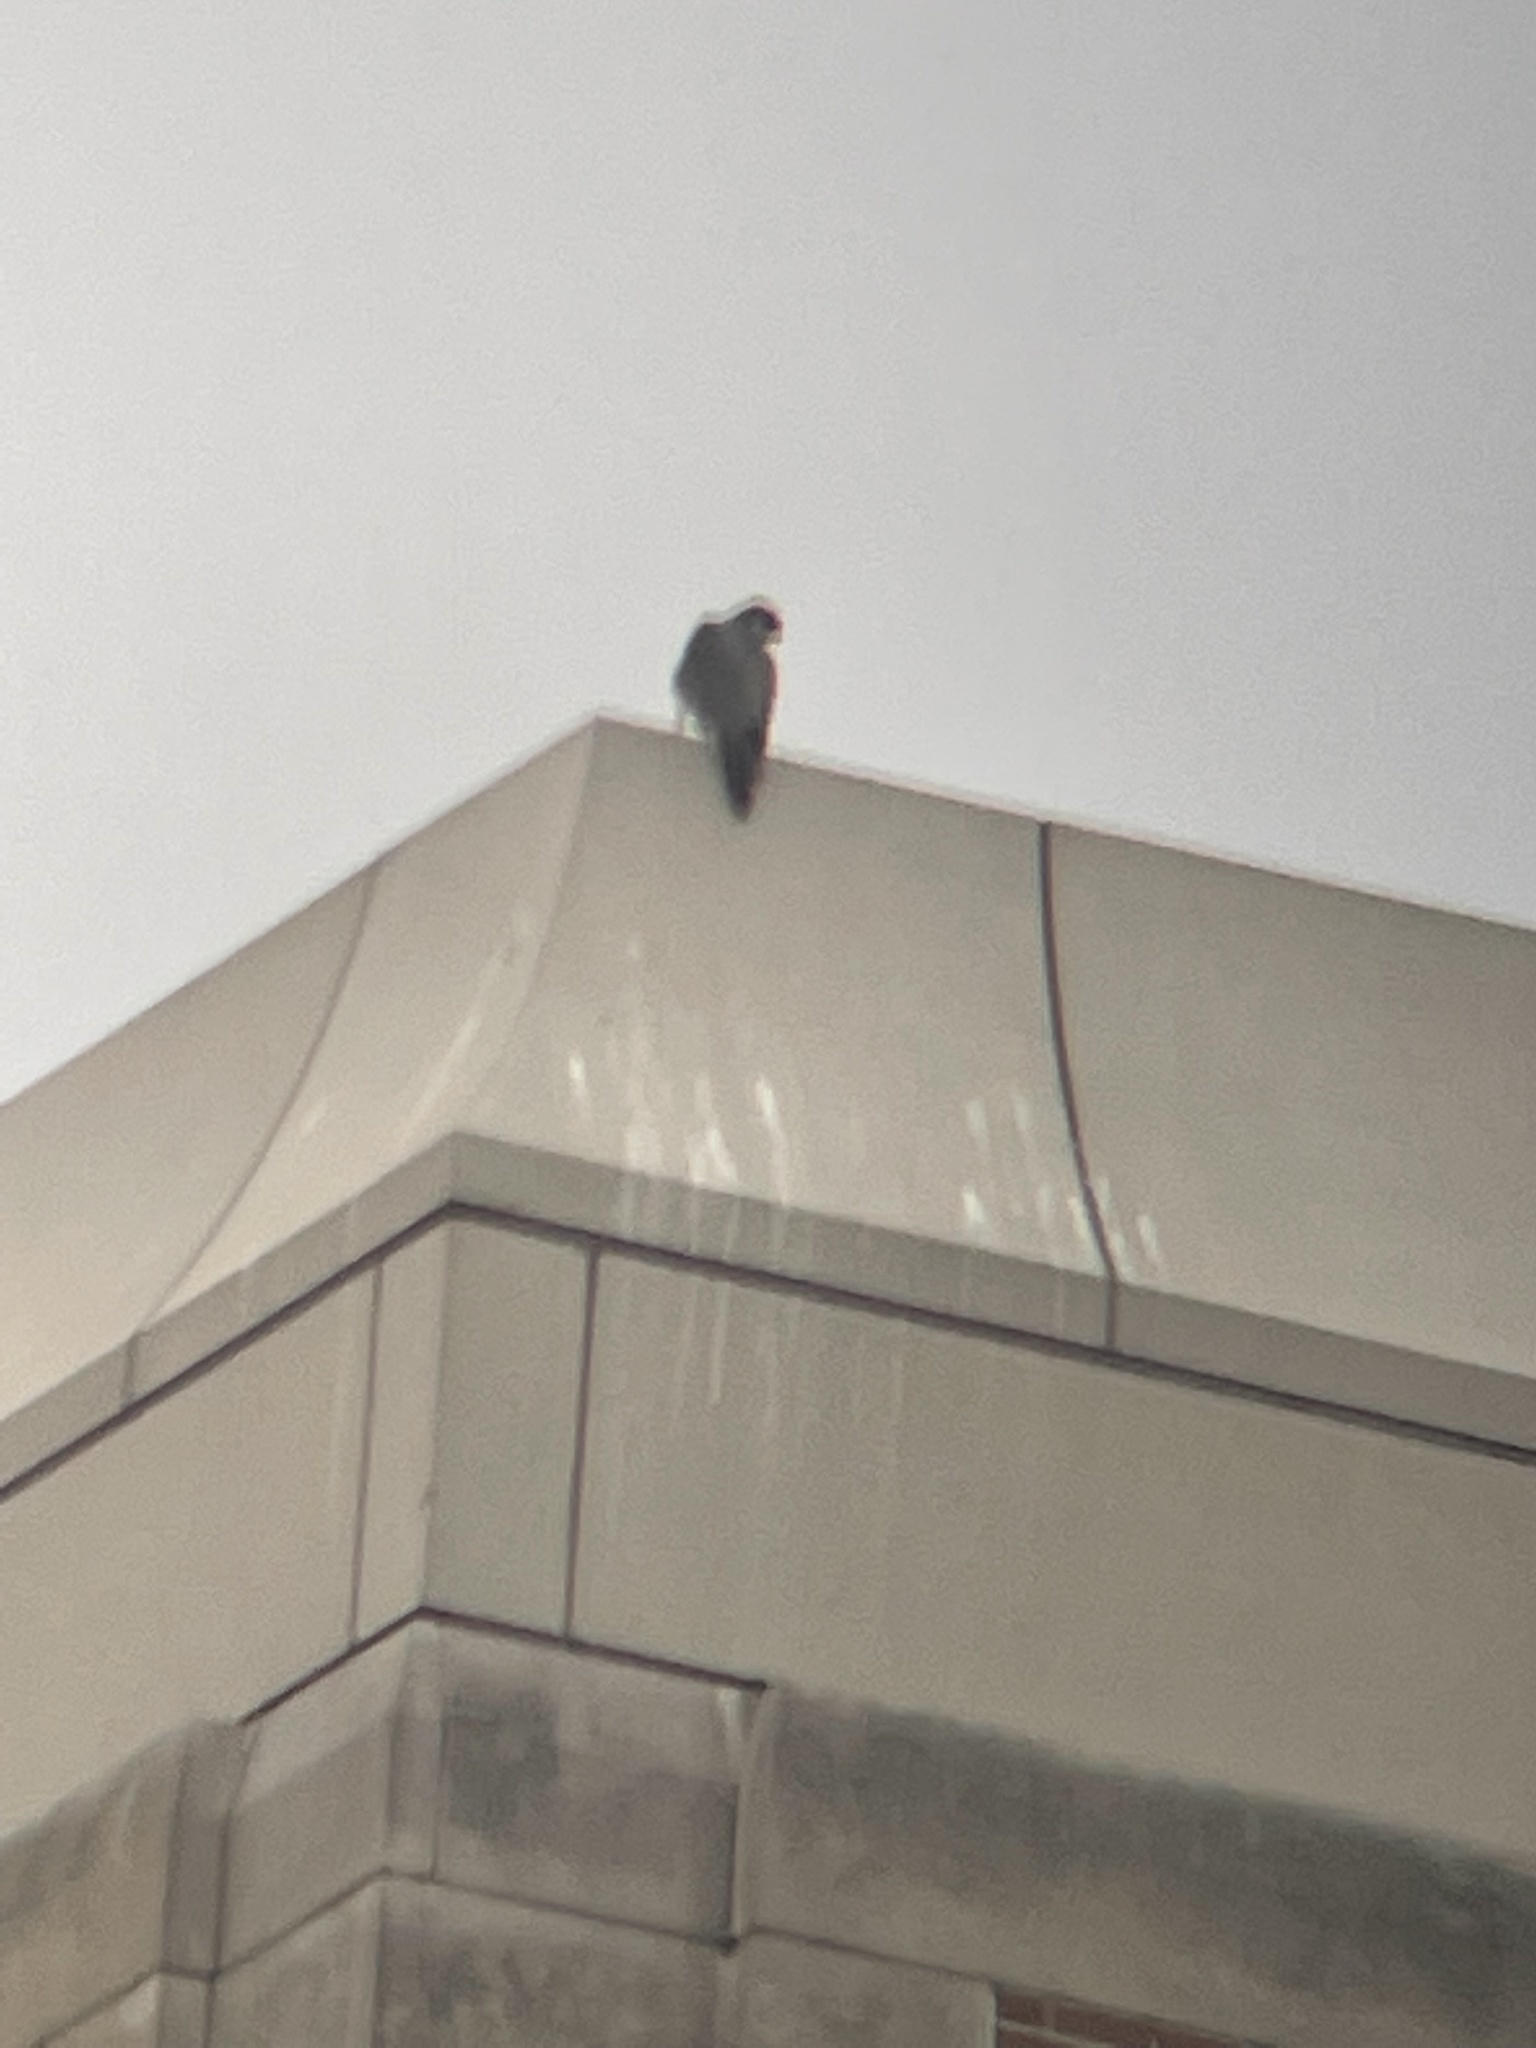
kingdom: Animalia
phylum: Chordata
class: Aves
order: Falconiformes
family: Falconidae
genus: Falco
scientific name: Falco peregrinus
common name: Peregrine falcon
